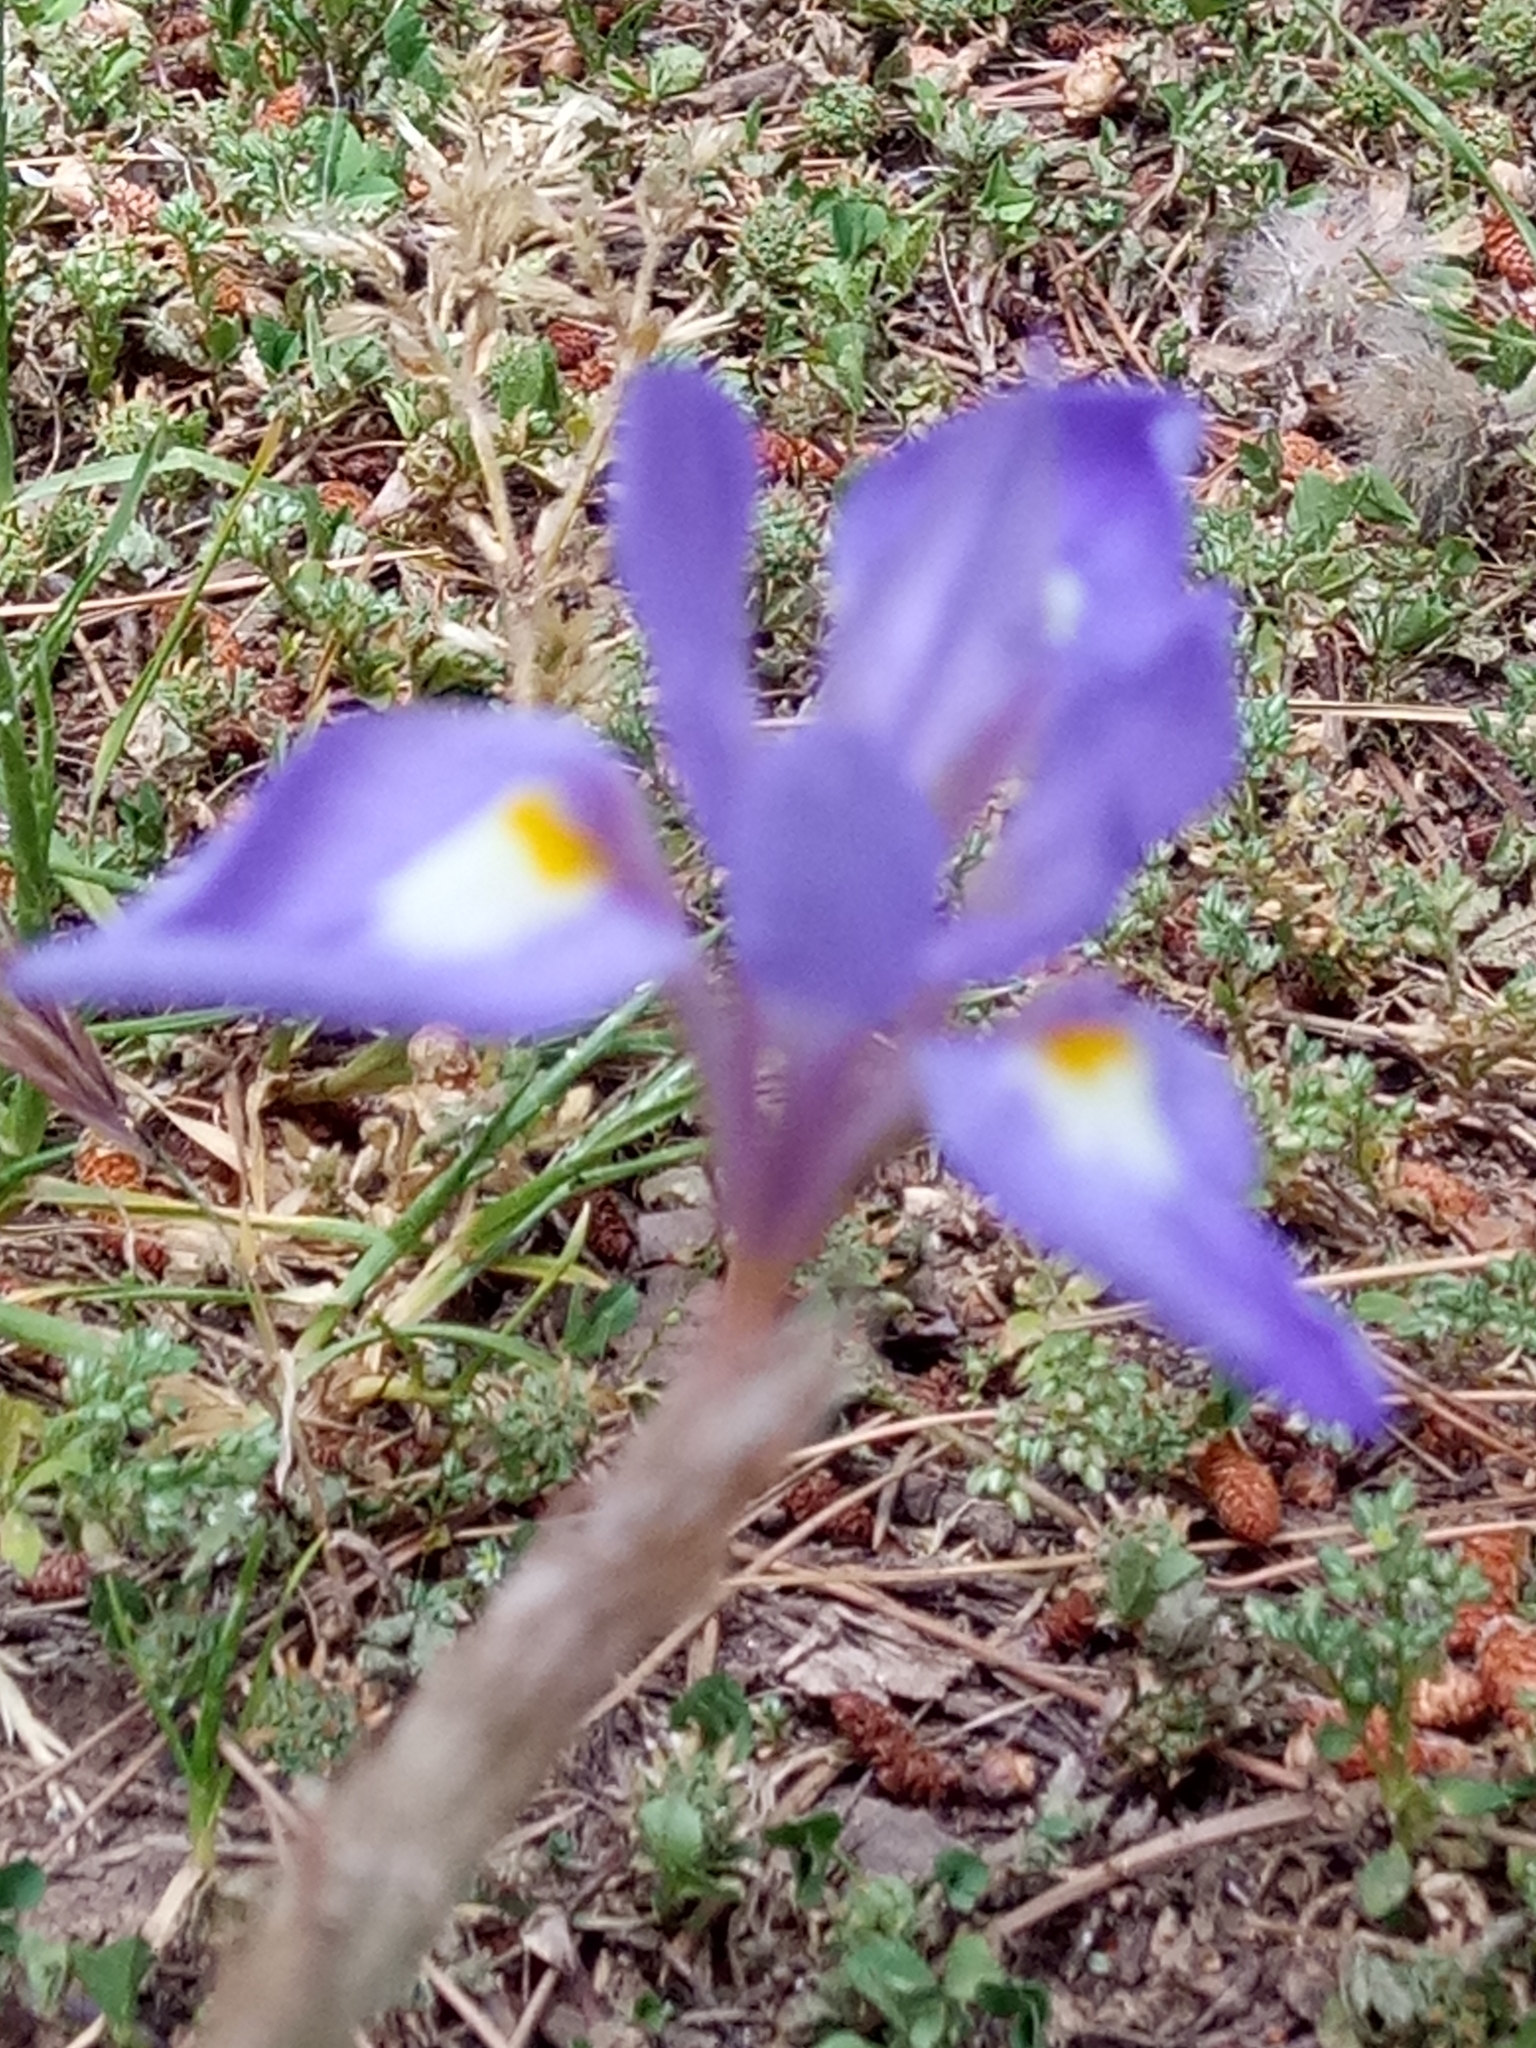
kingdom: Plantae
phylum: Tracheophyta
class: Liliopsida
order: Asparagales
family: Iridaceae
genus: Moraea
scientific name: Moraea sisyrinchium
